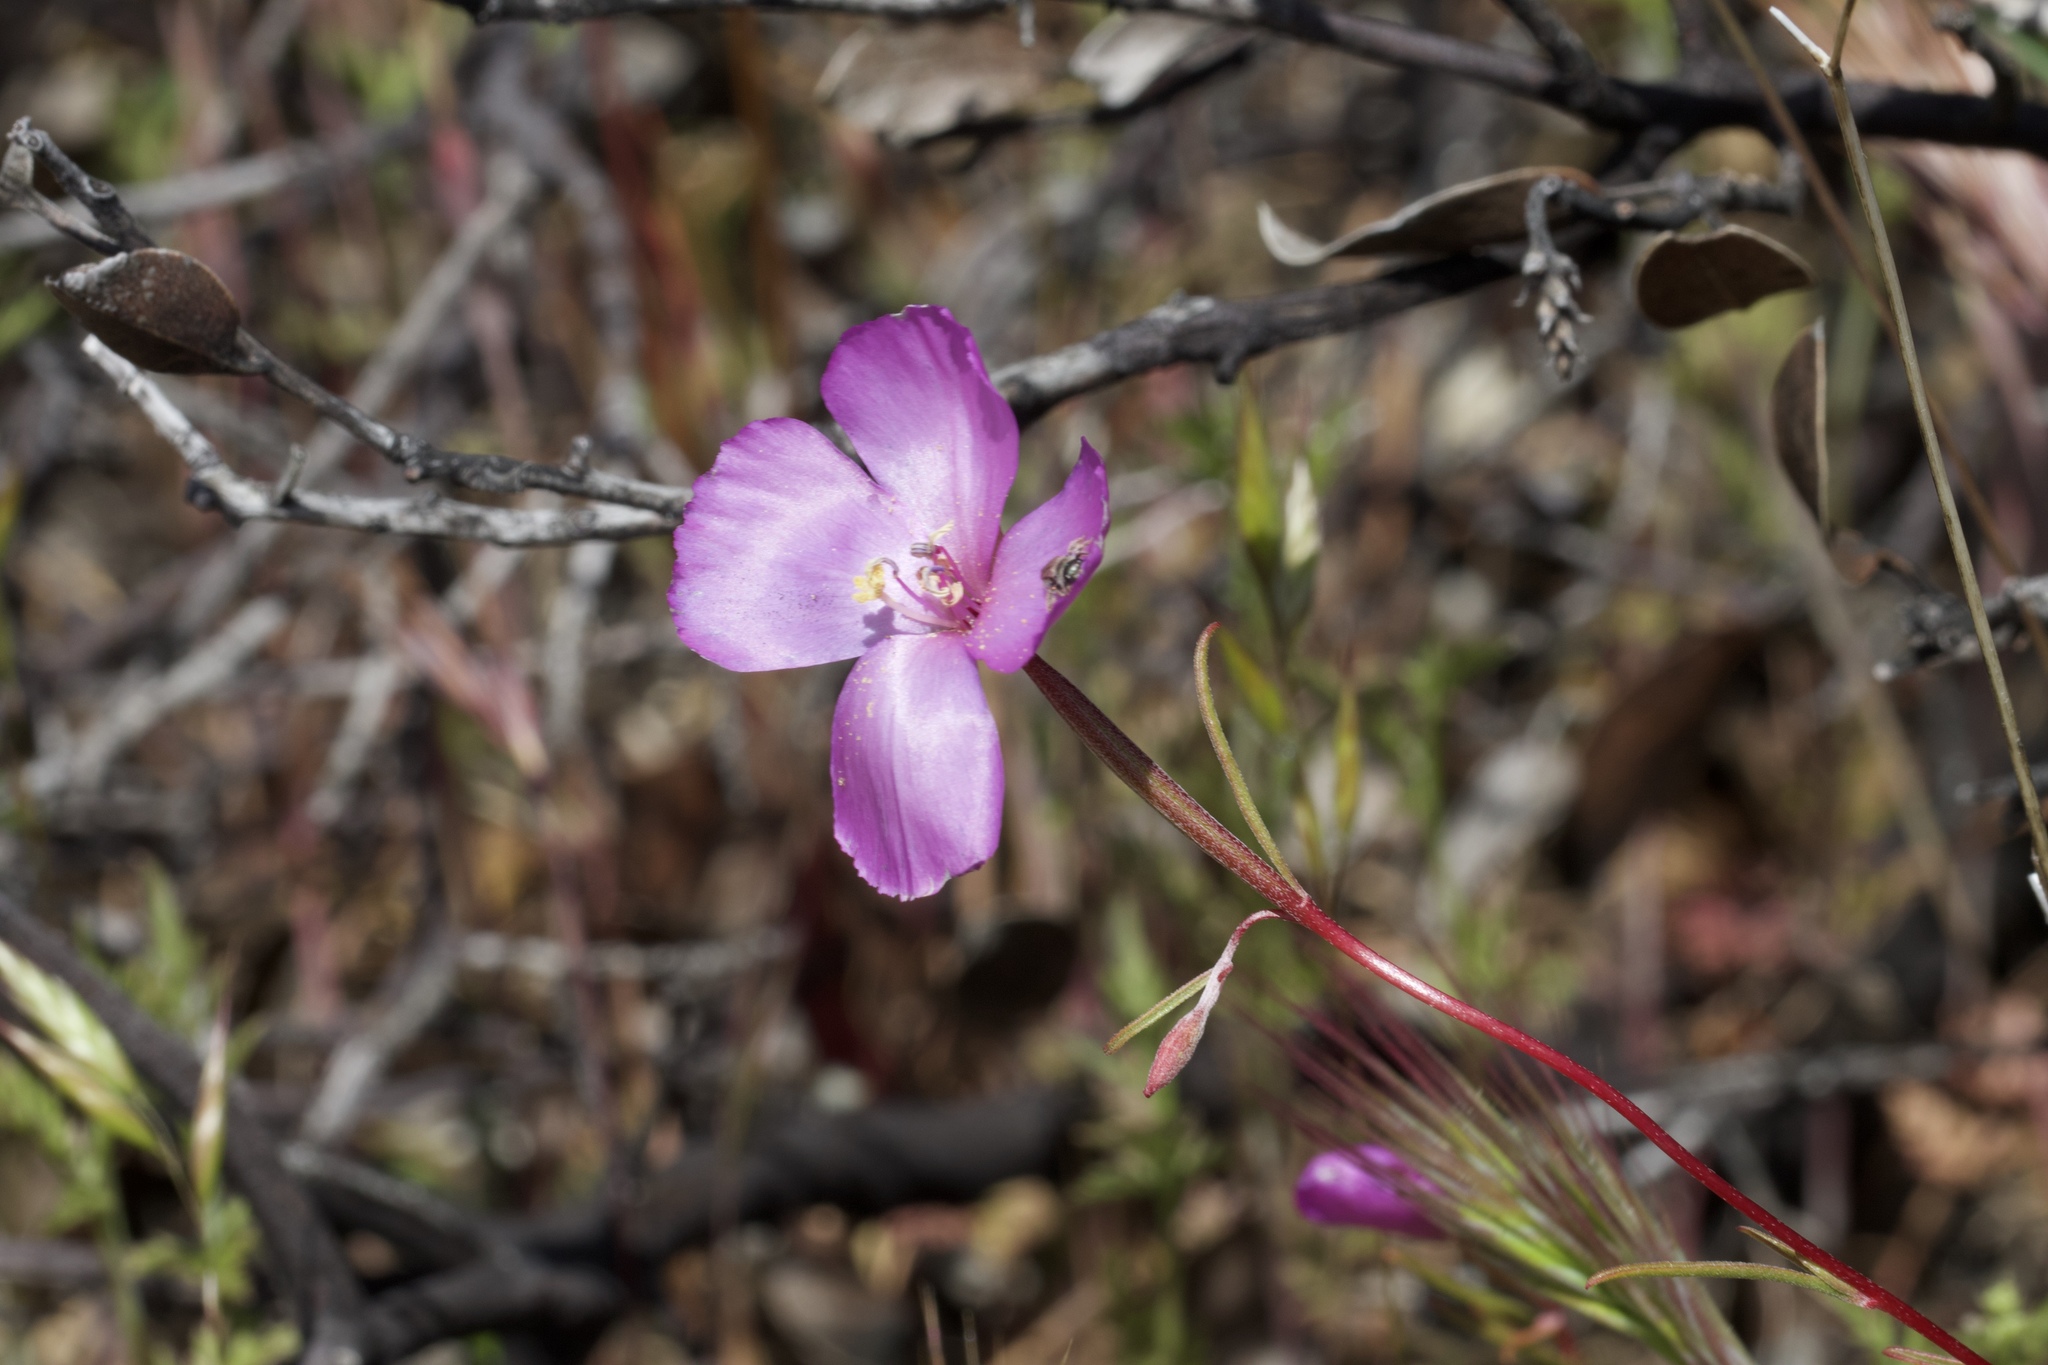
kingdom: Plantae
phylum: Tracheophyta
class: Magnoliopsida
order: Myrtales
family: Onagraceae
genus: Clarkia
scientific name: Clarkia gracilis
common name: Graceful clarkia
